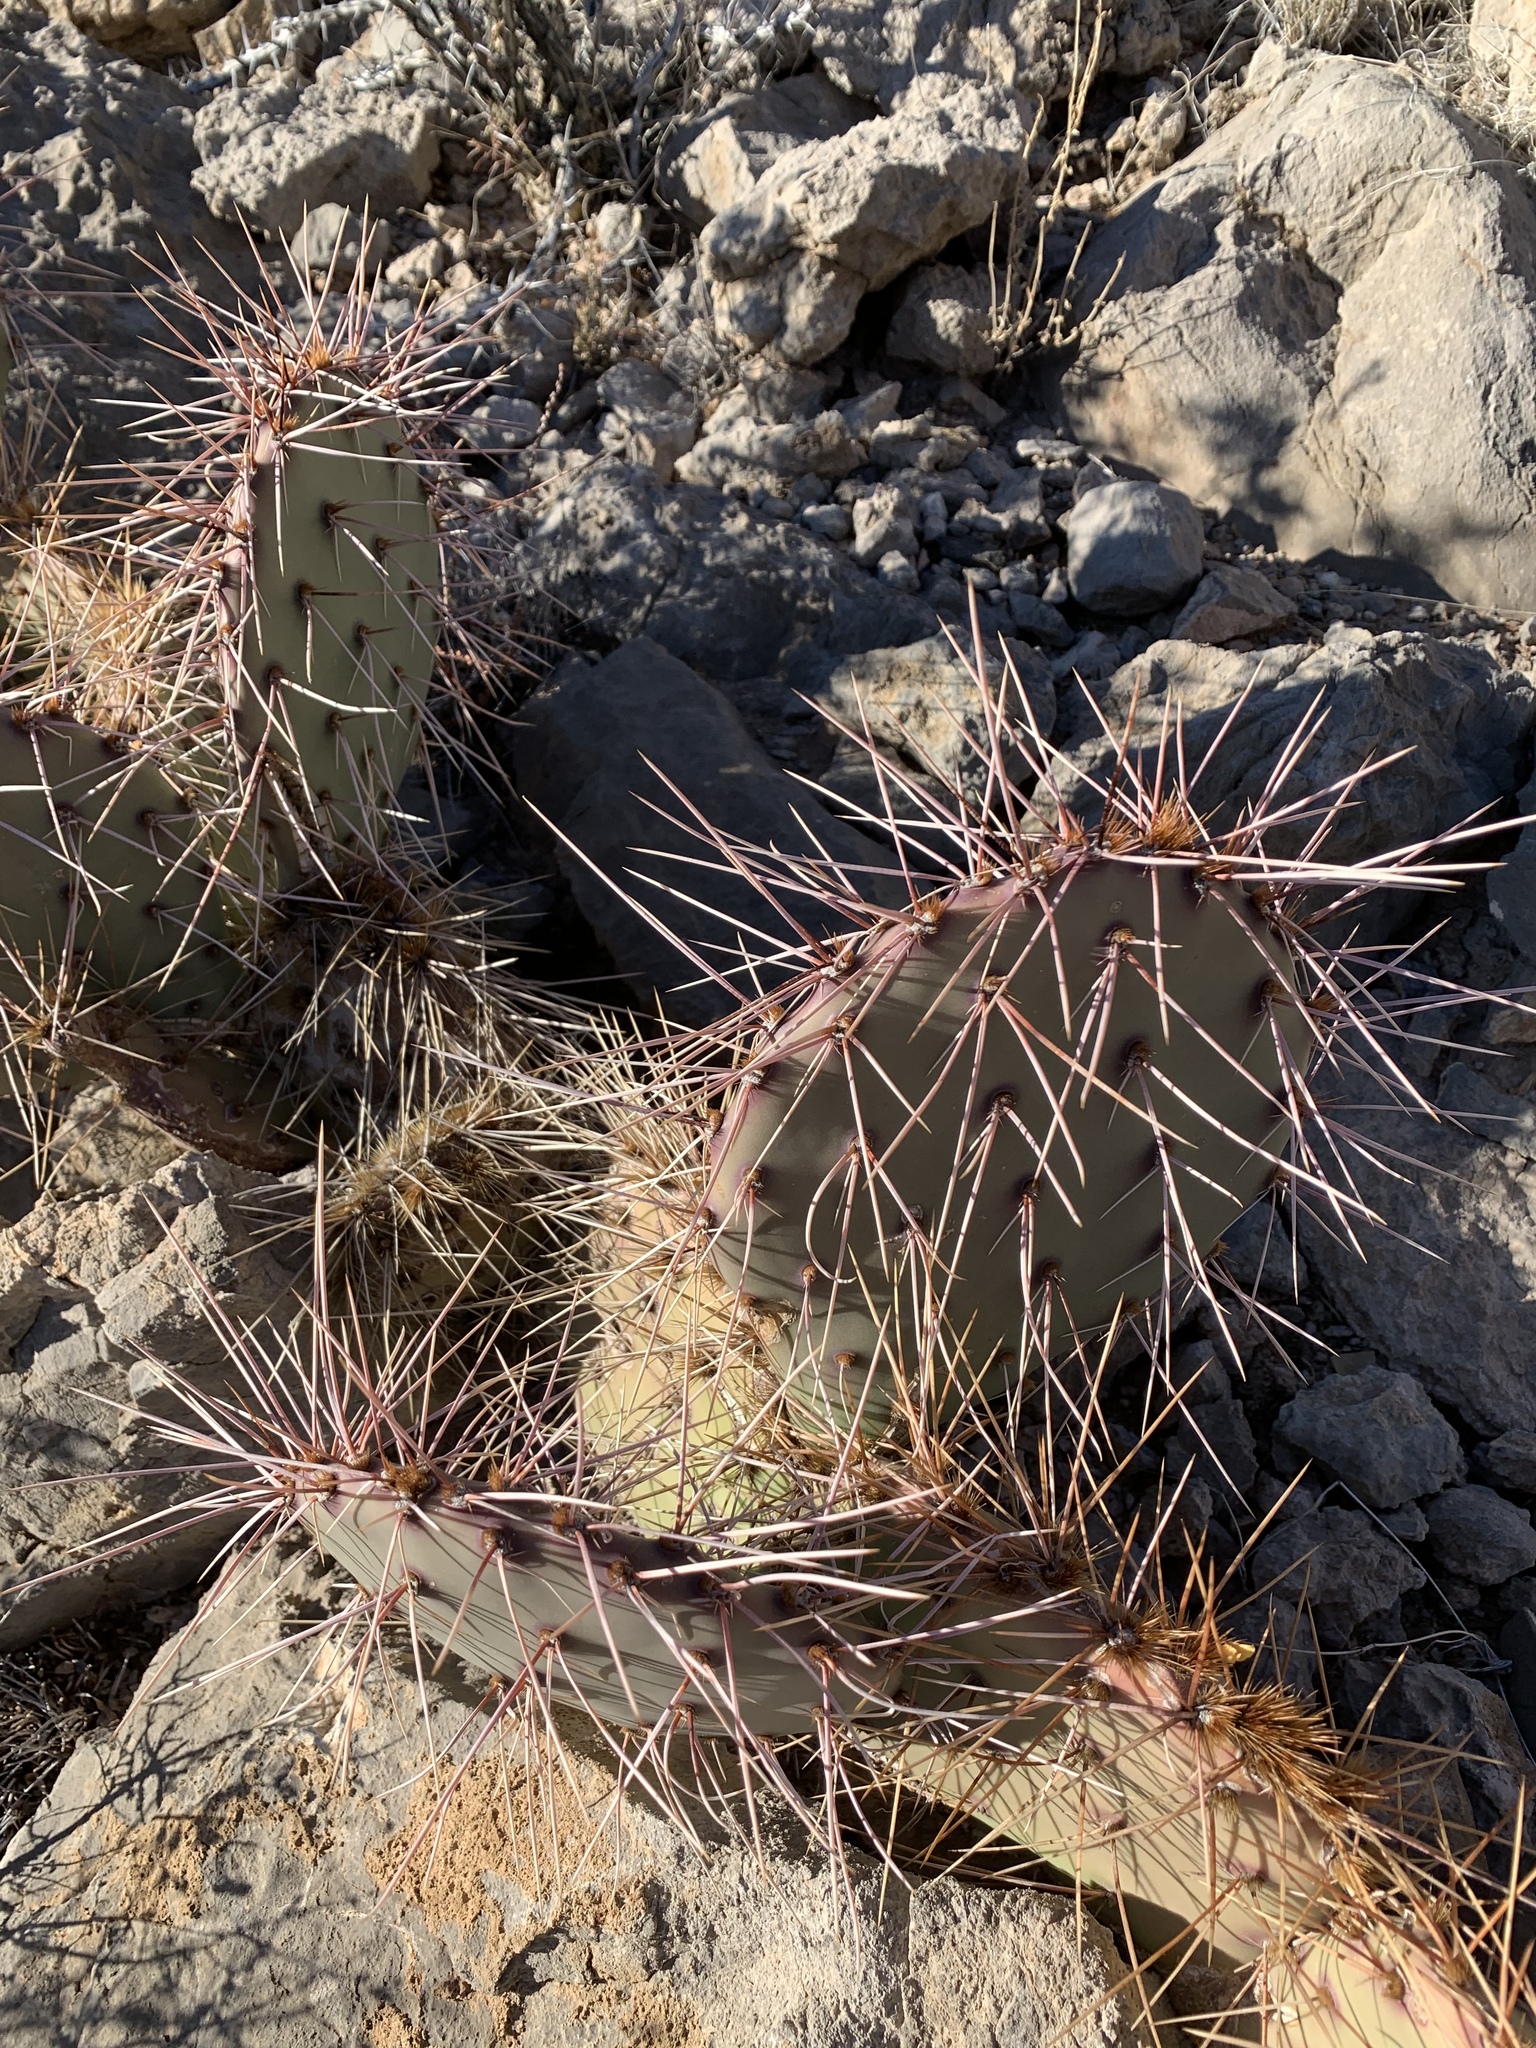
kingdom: Plantae
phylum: Tracheophyta
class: Magnoliopsida
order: Caryophyllales
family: Cactaceae
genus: Opuntia
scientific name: Opuntia macrocentra
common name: Purple prickly-pear
